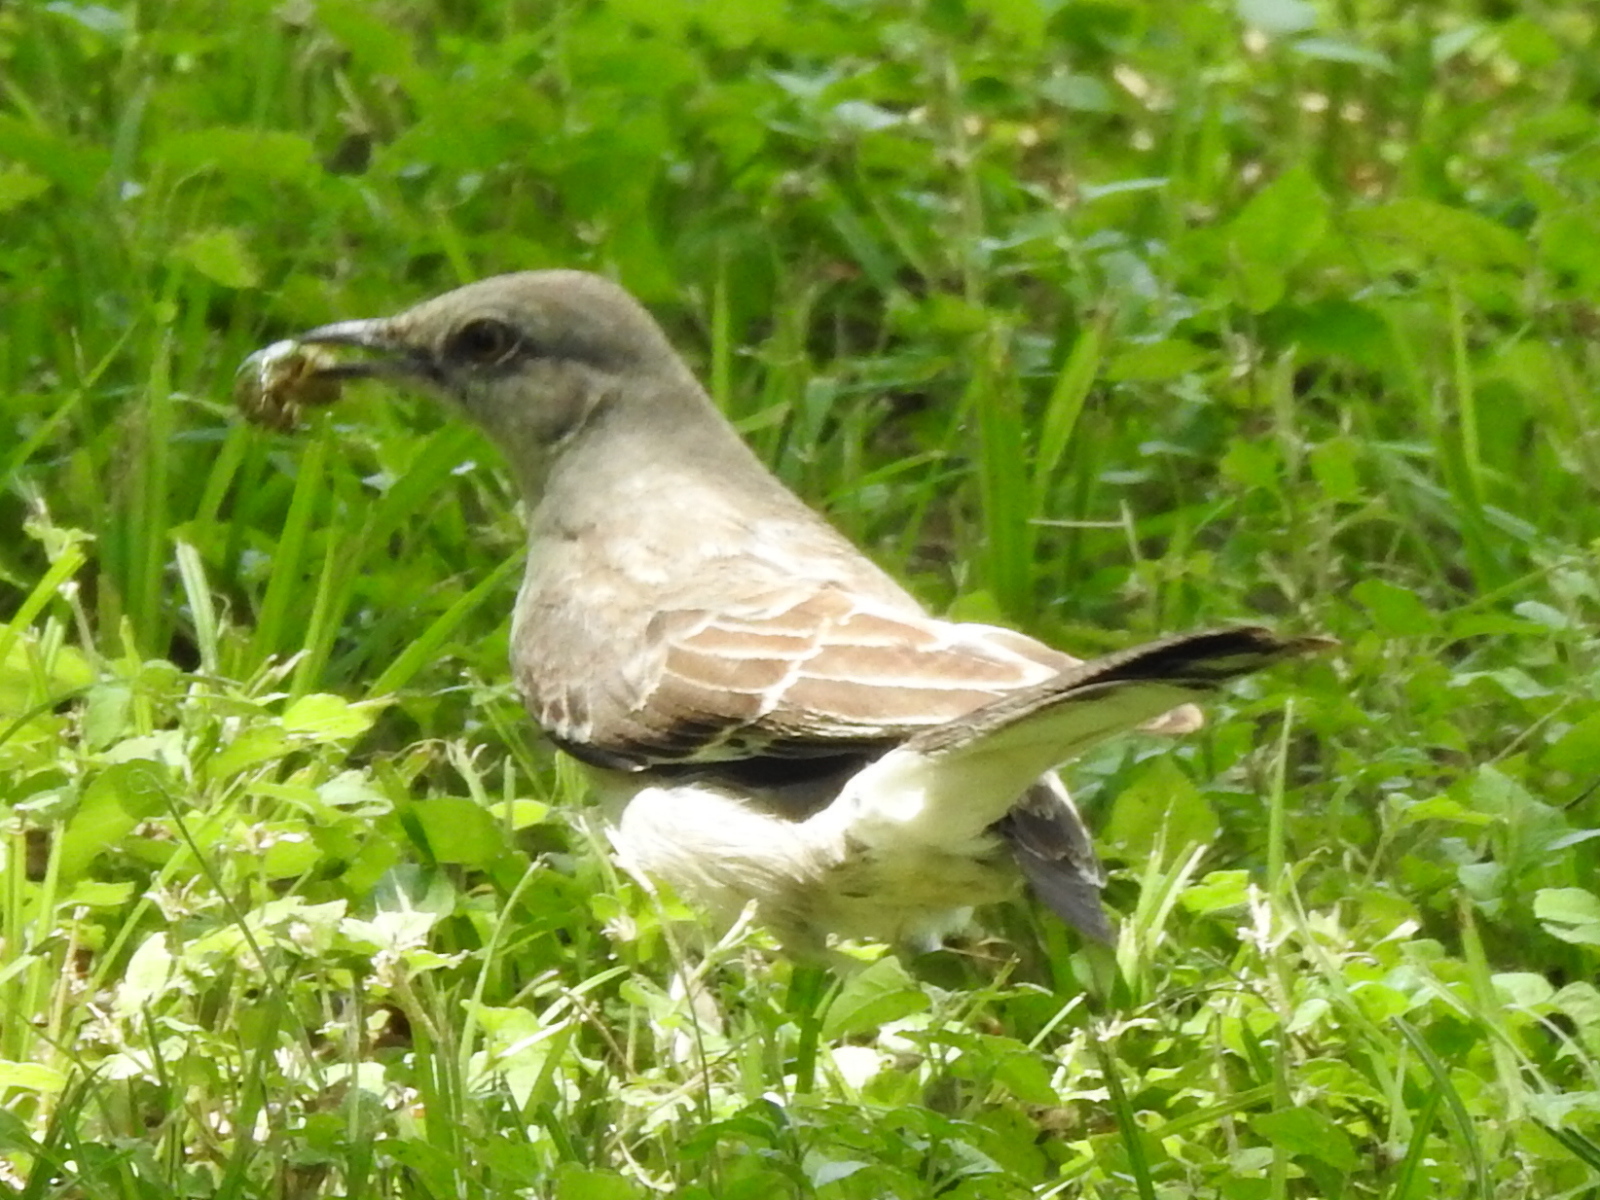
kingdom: Animalia
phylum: Chordata
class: Aves
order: Passeriformes
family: Mimidae
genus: Mimus
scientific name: Mimus polyglottos
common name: Northern mockingbird
